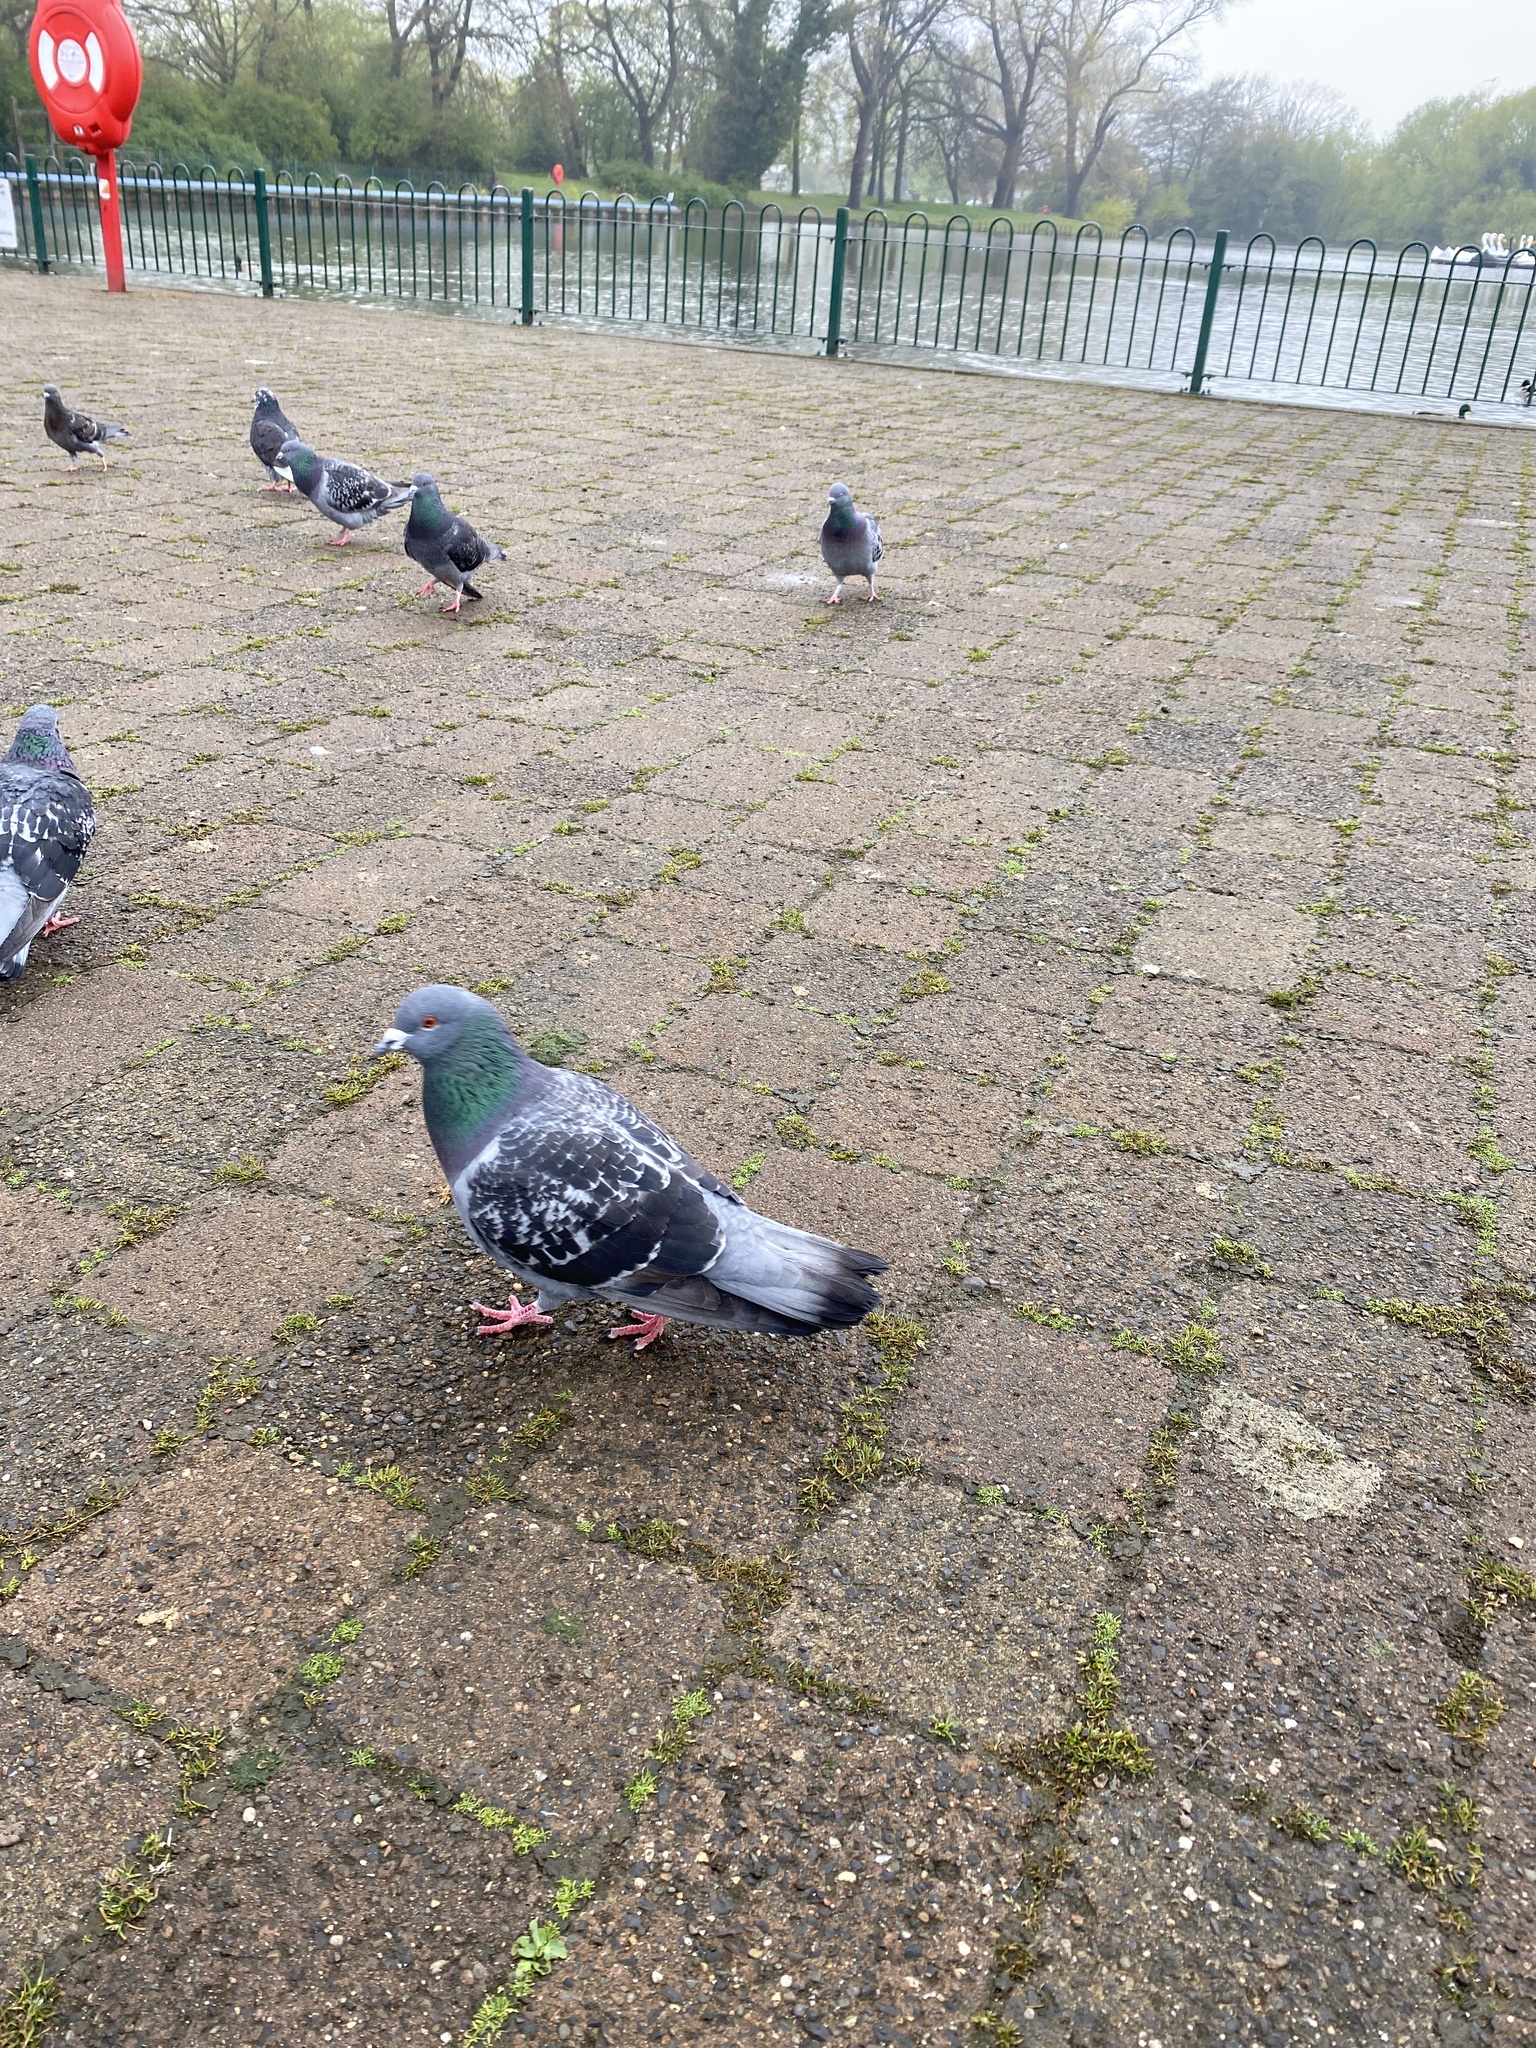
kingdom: Animalia
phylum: Chordata
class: Aves
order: Columbiformes
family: Columbidae
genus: Columba
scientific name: Columba livia
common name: Rock pigeon
